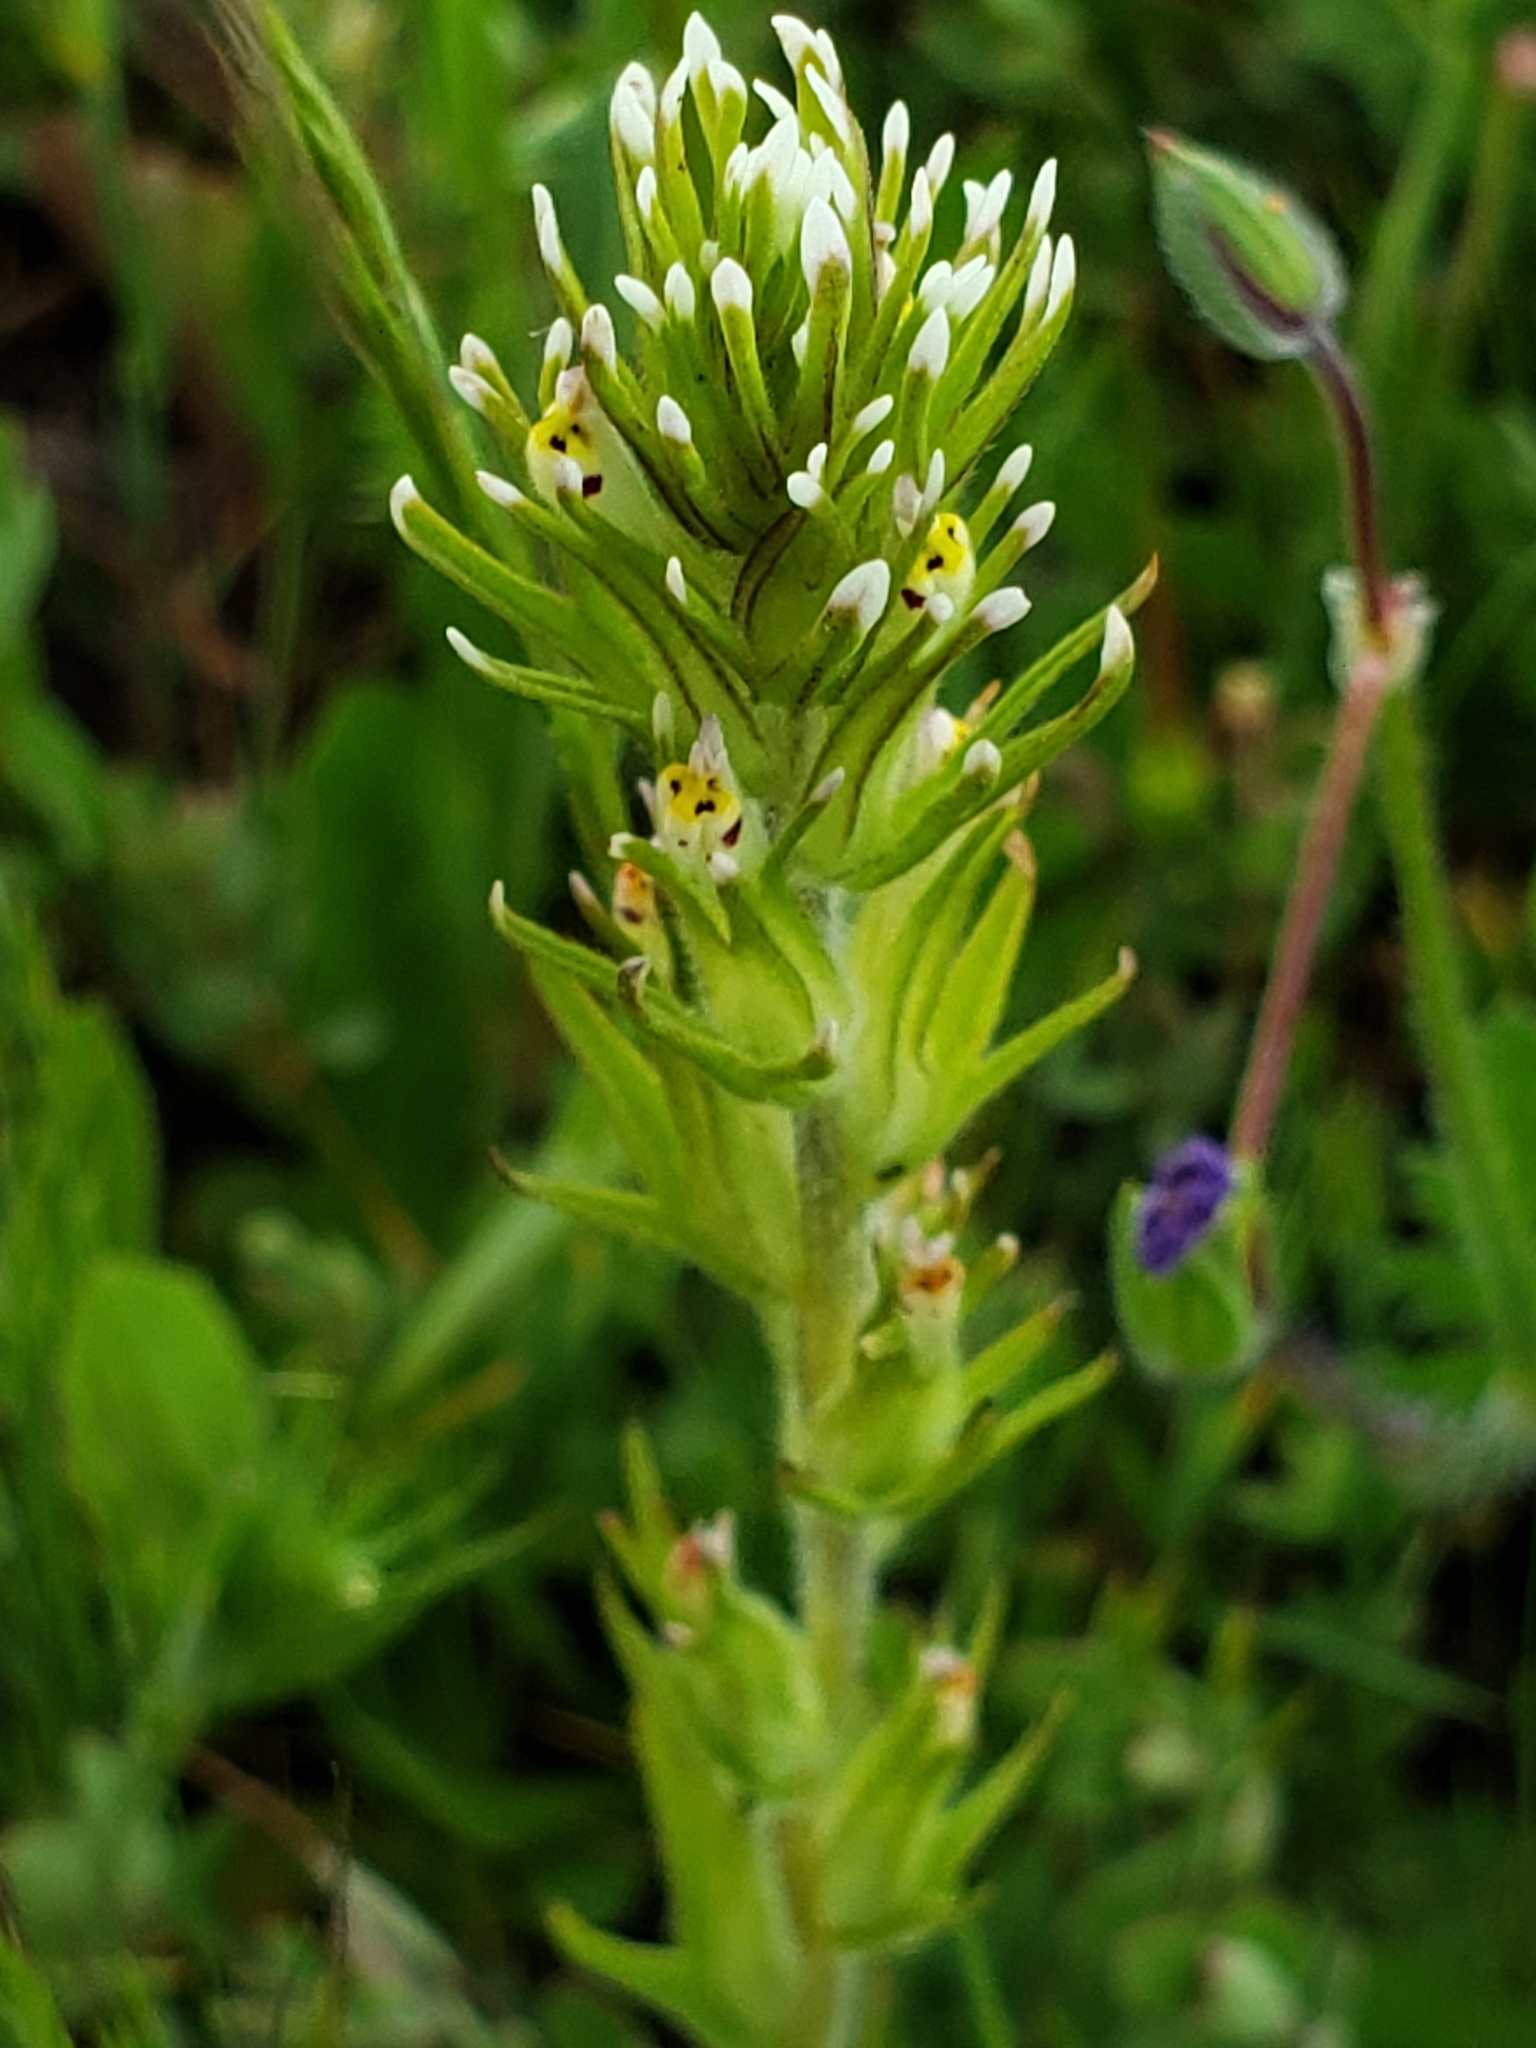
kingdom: Plantae
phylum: Tracheophyta
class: Magnoliopsida
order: Lamiales
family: Orobanchaceae
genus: Castilleja
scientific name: Castilleja attenuata
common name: Valley tassels
